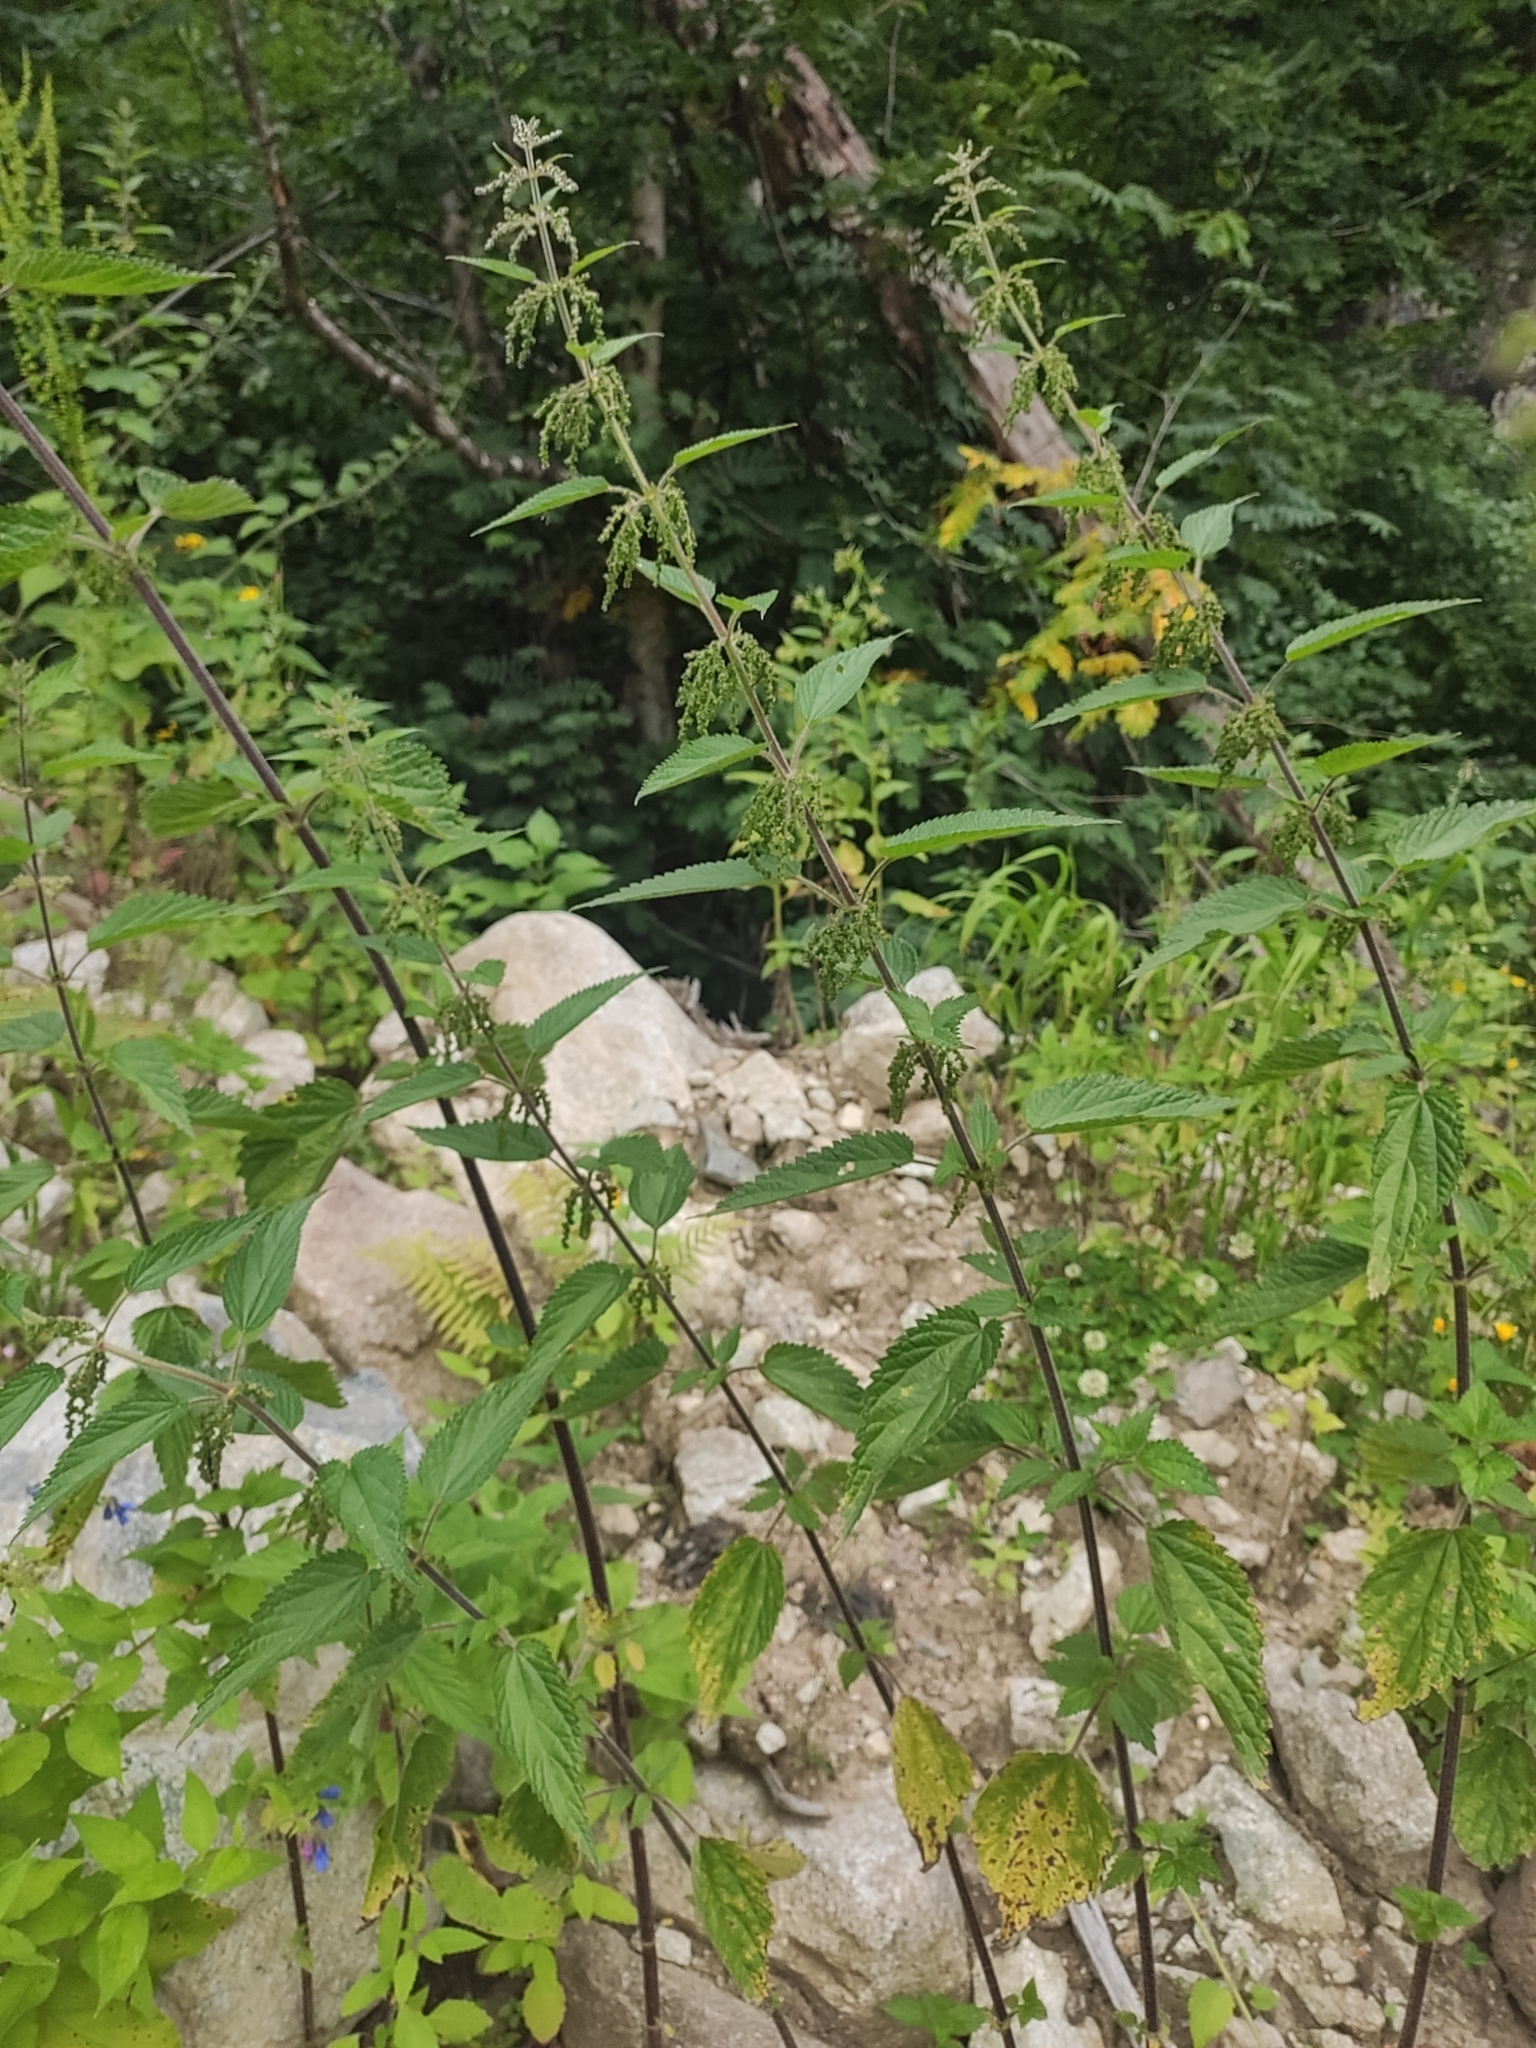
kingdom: Plantae
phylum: Tracheophyta
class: Magnoliopsida
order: Rosales
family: Urticaceae
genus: Urtica
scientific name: Urtica dioica
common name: Common nettle
